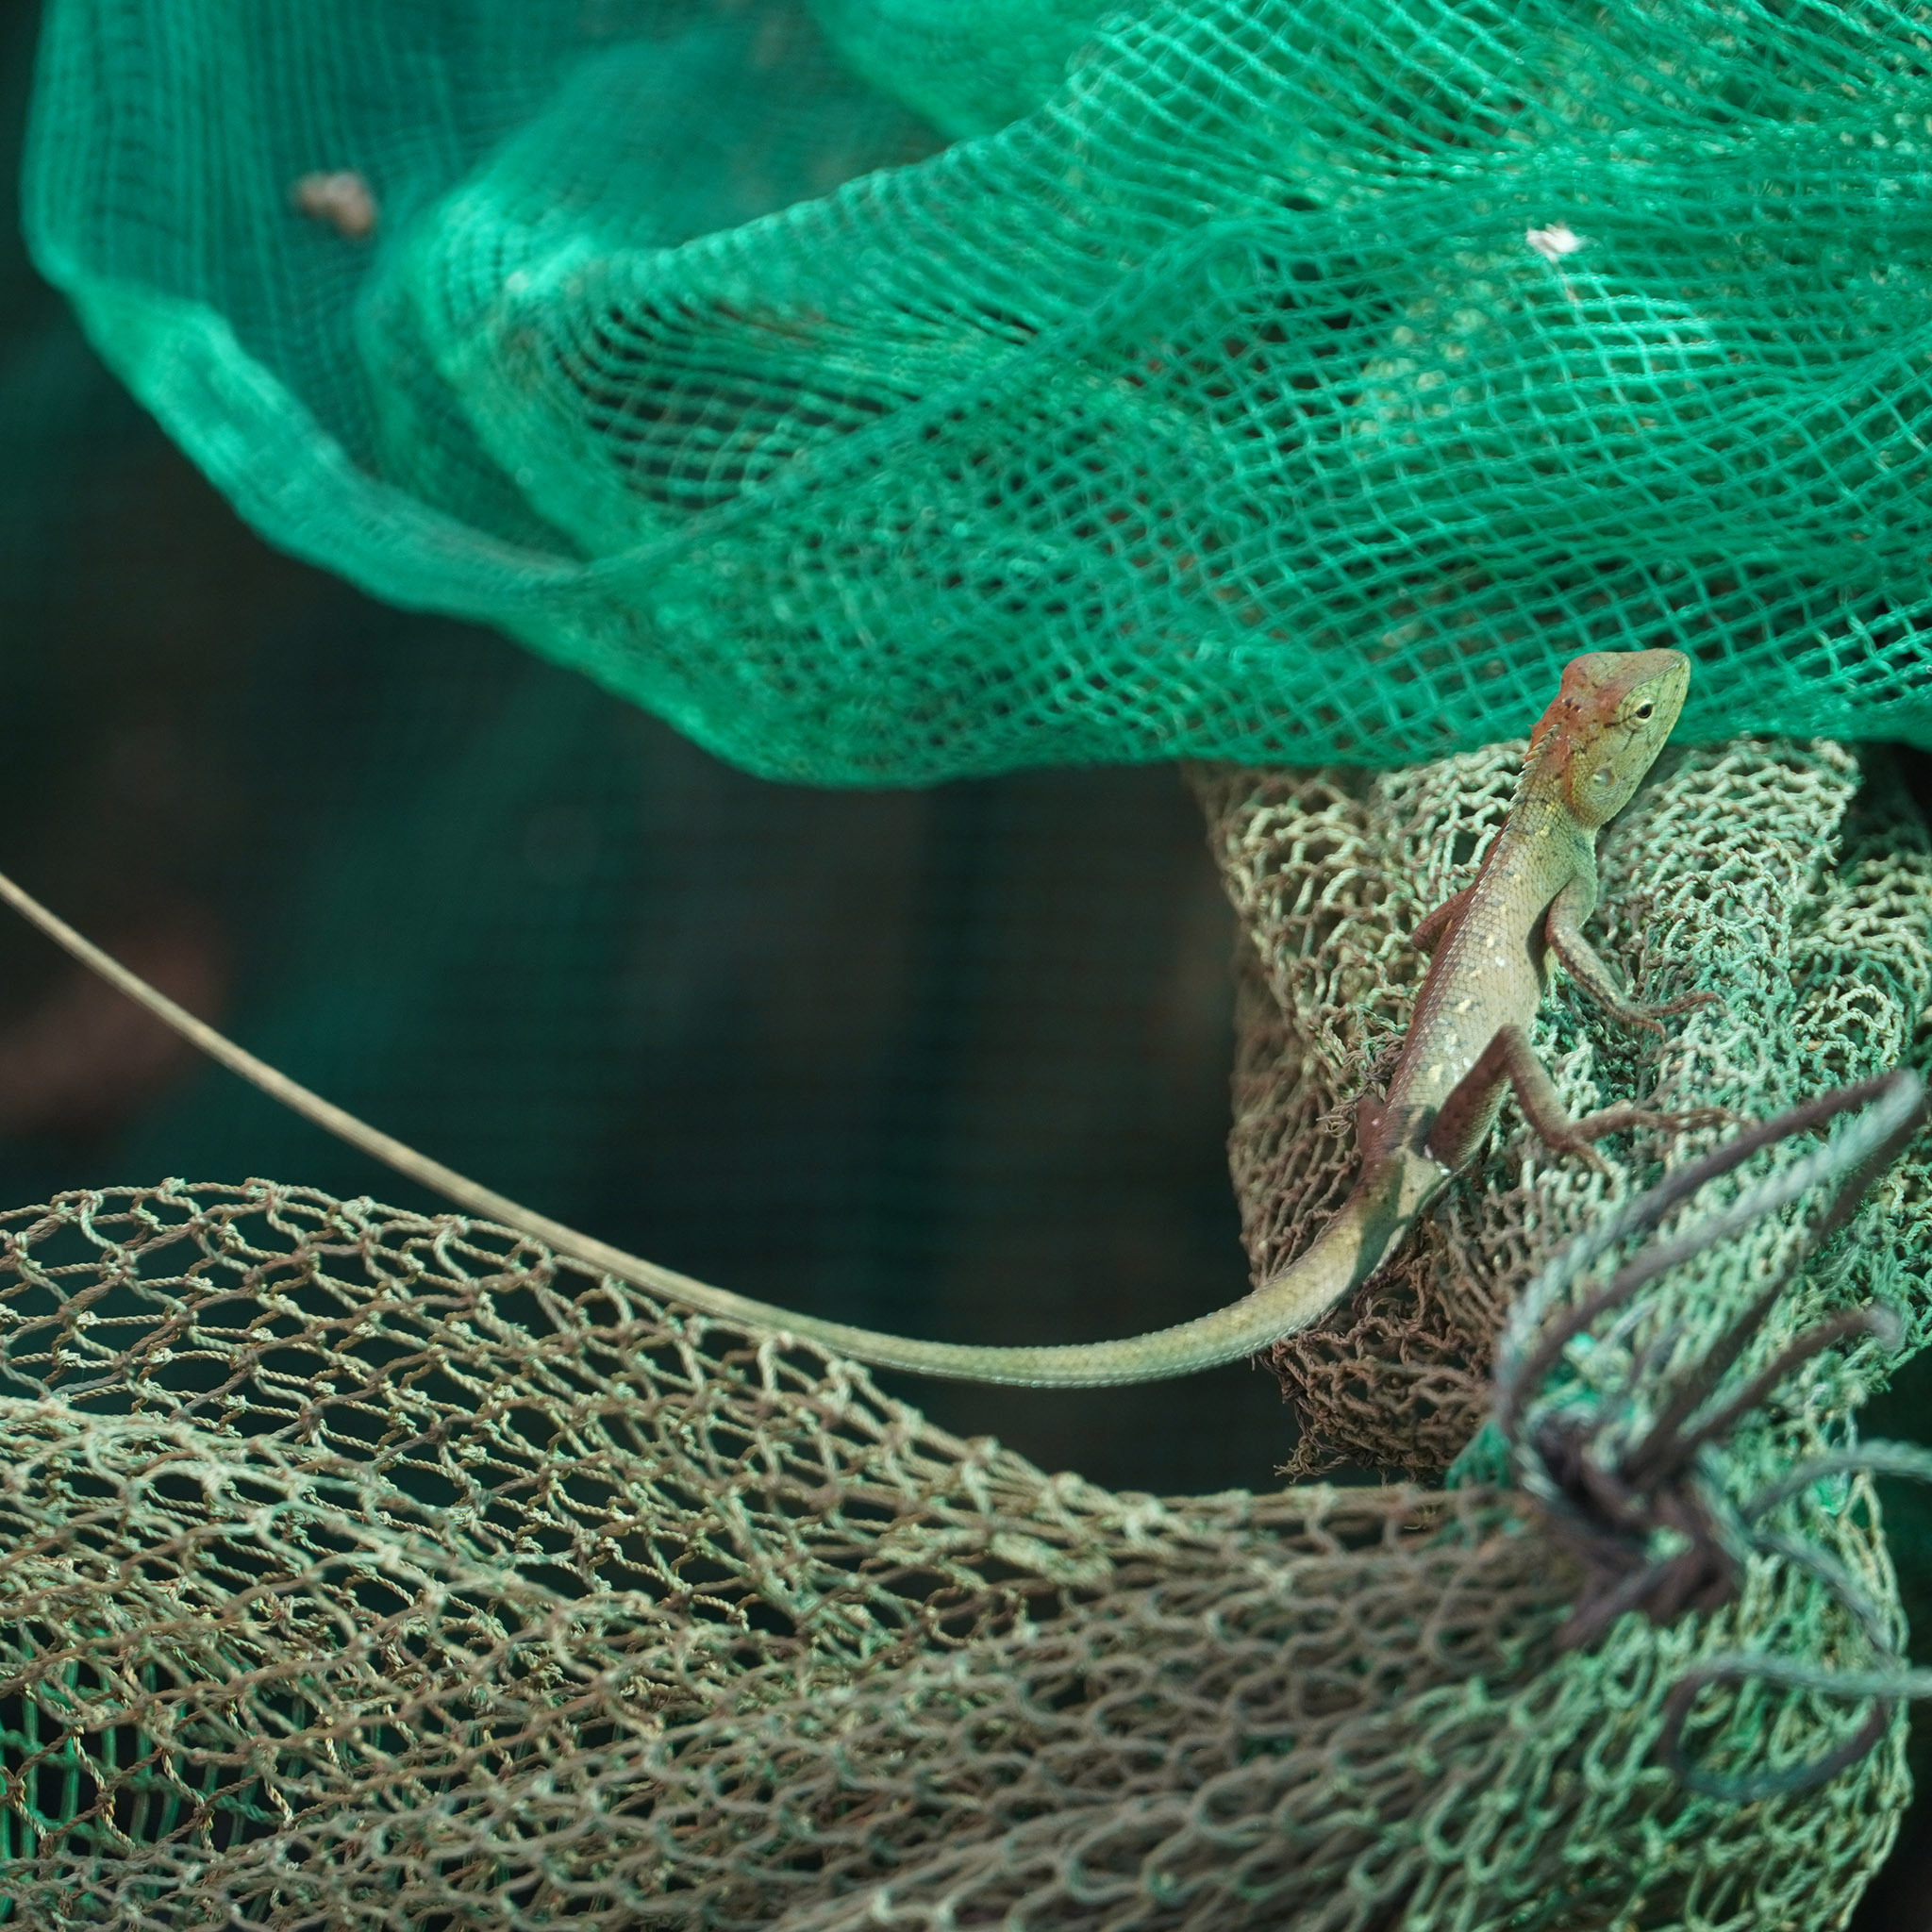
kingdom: Animalia
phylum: Chordata
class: Squamata
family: Agamidae
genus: Calotes
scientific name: Calotes versicolor
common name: Oriental garden lizard
